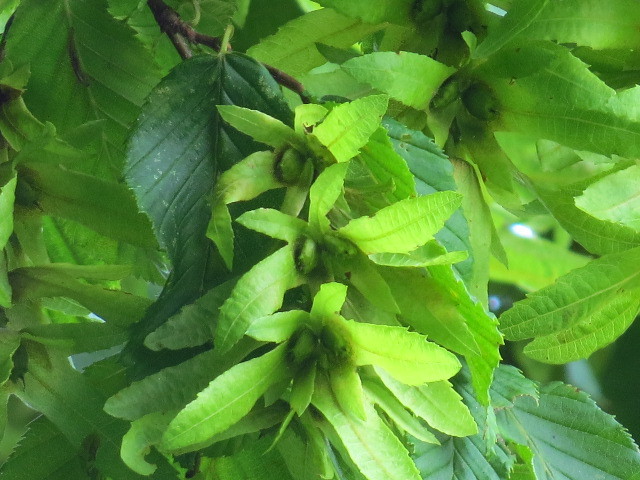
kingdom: Plantae
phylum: Tracheophyta
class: Magnoliopsida
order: Fagales
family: Betulaceae
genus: Carpinus
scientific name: Carpinus betulus
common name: Hornbeam
